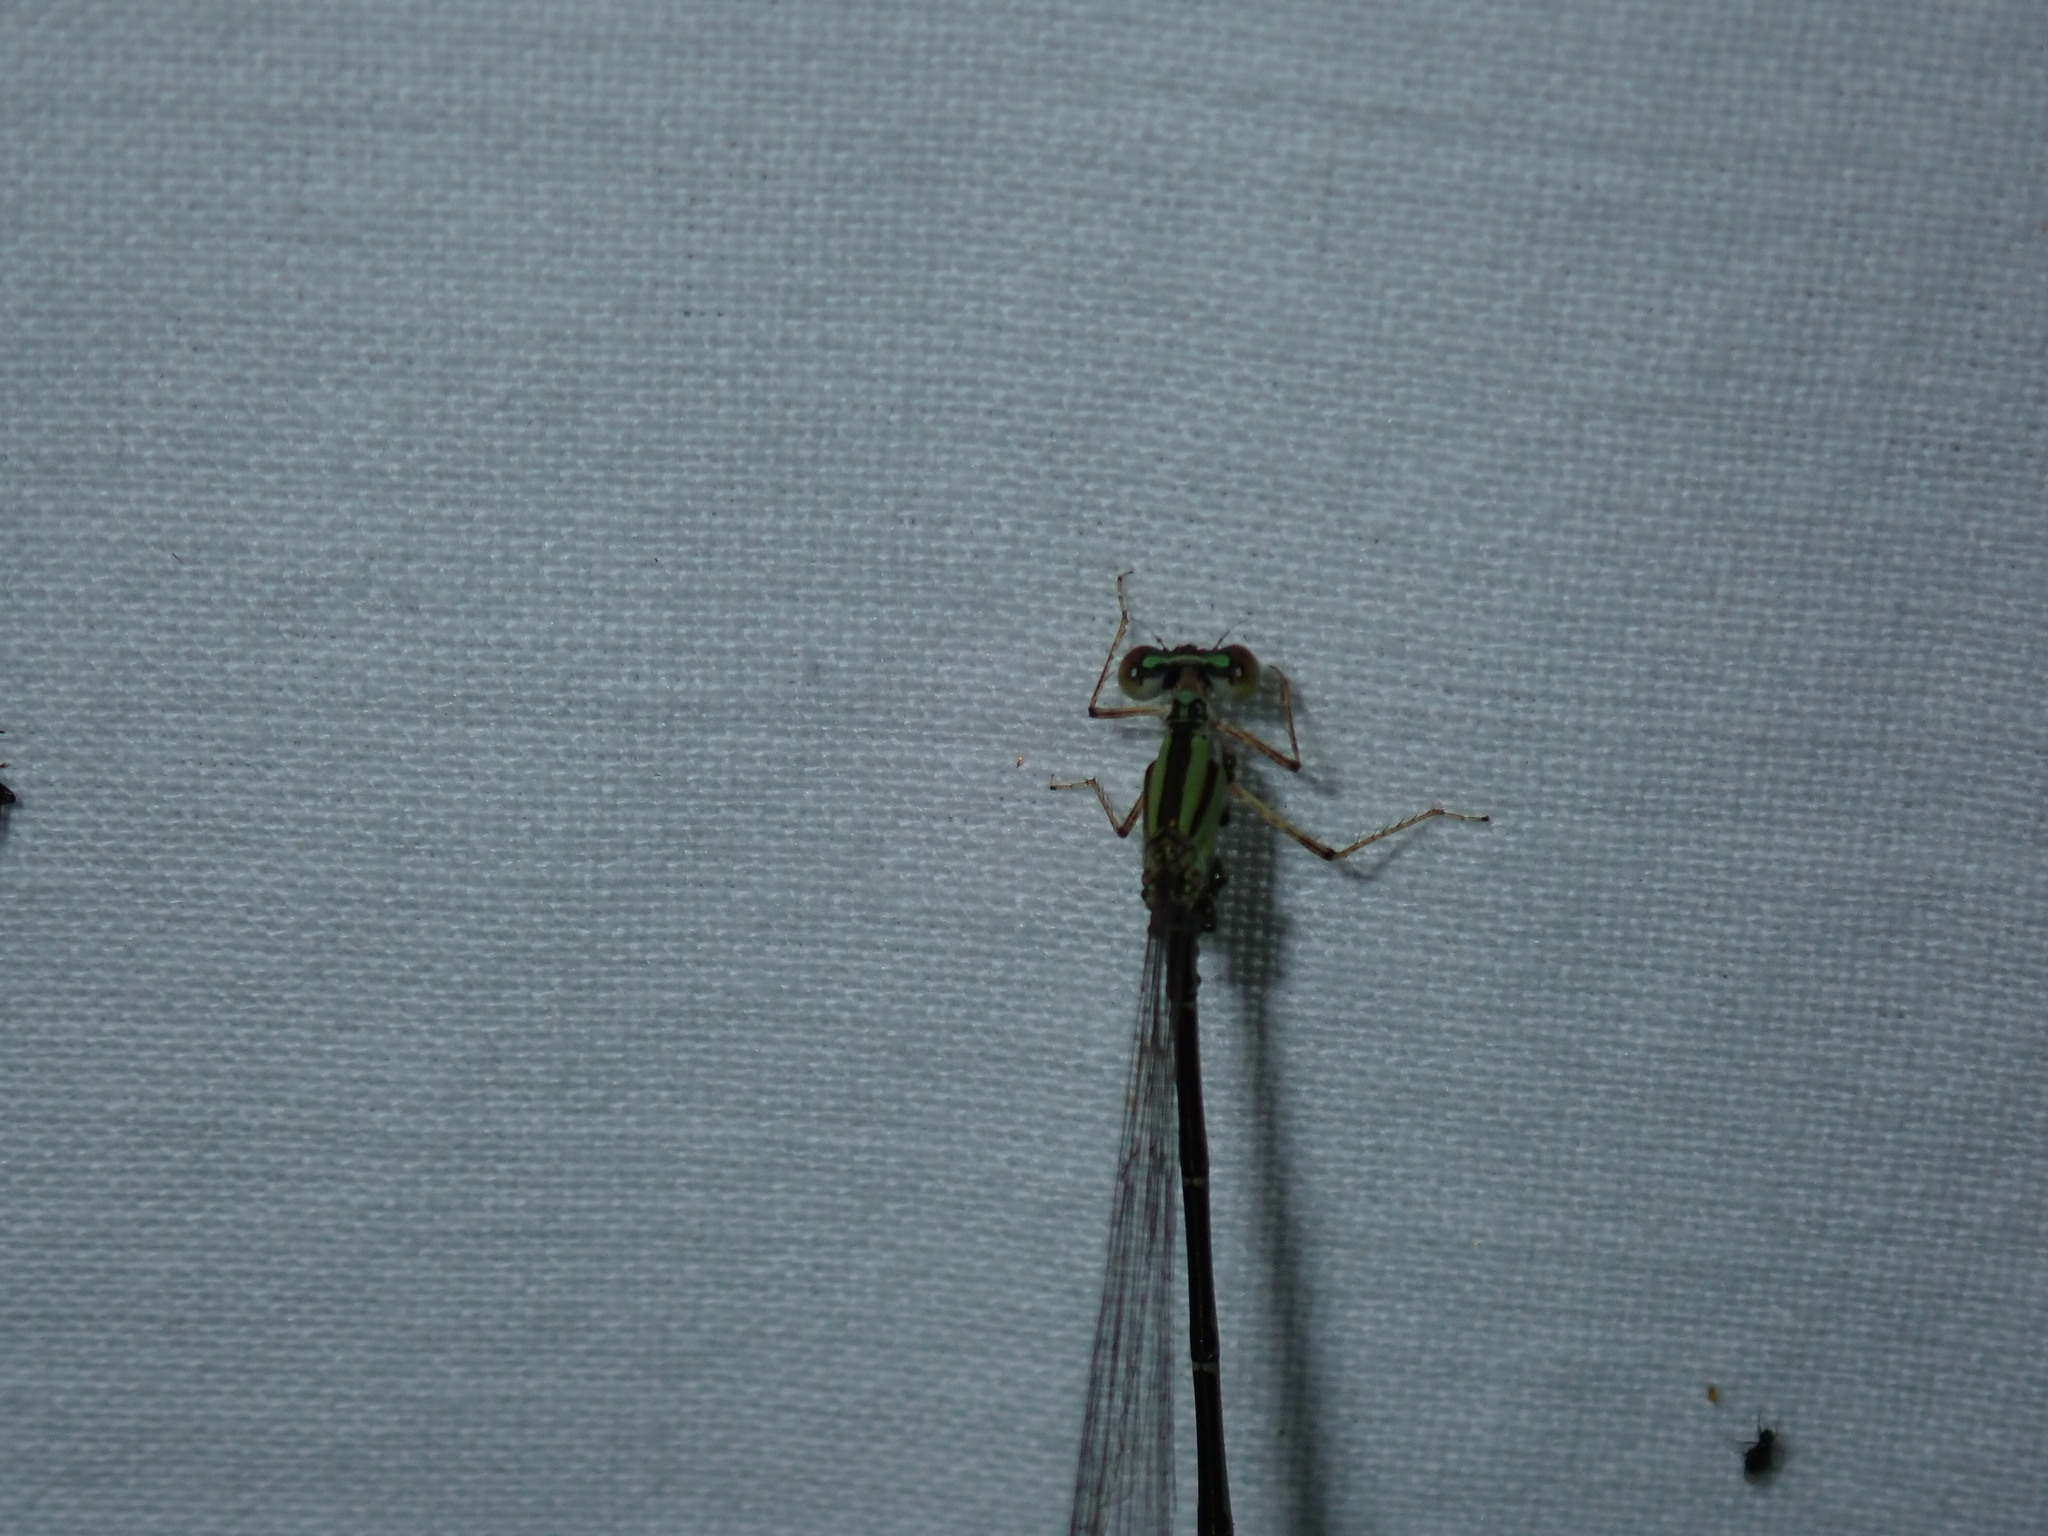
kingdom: Animalia
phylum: Arthropoda
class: Insecta
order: Odonata
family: Coenagrionidae
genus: Enallagma
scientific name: Enallagma signatum
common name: Orange bluet
